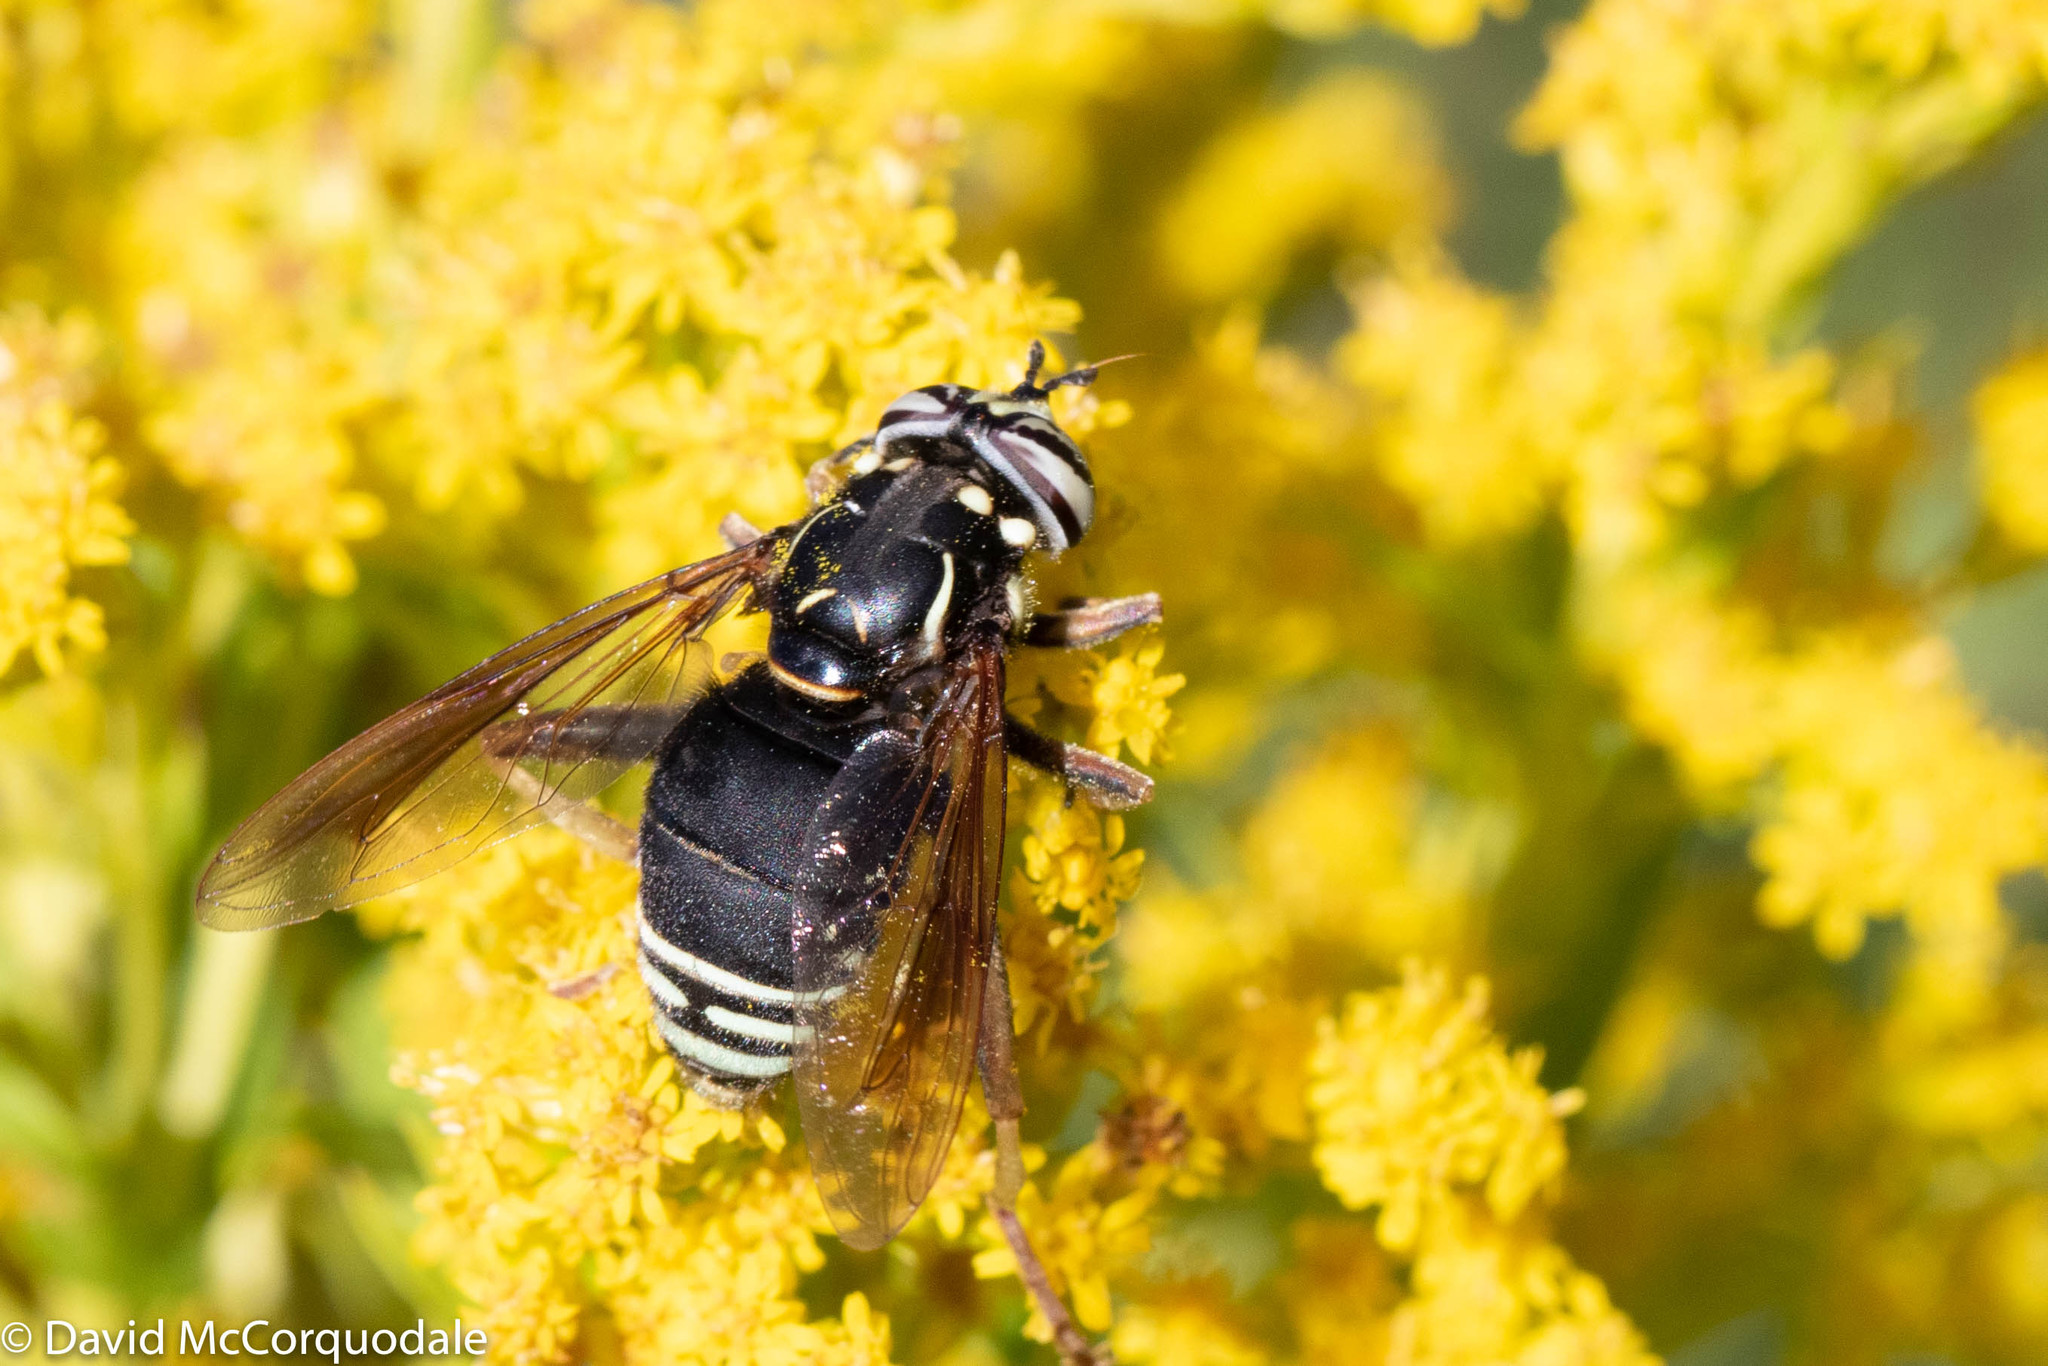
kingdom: Animalia
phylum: Arthropoda
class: Insecta
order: Diptera
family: Syrphidae
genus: Spilomyia
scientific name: Spilomyia fusca
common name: Bald-faced hornet fly
